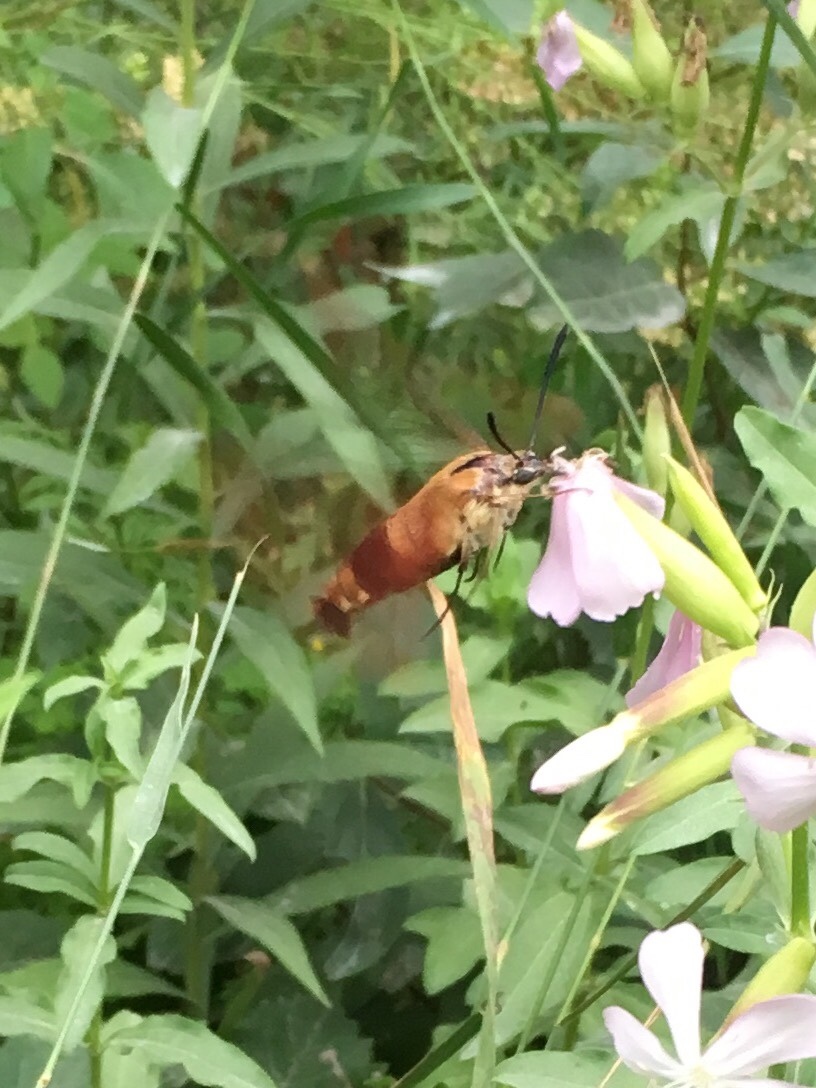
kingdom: Animalia
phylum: Arthropoda
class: Insecta
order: Lepidoptera
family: Sphingidae
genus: Hemaris
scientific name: Hemaris thysbe
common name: Common clear-wing
